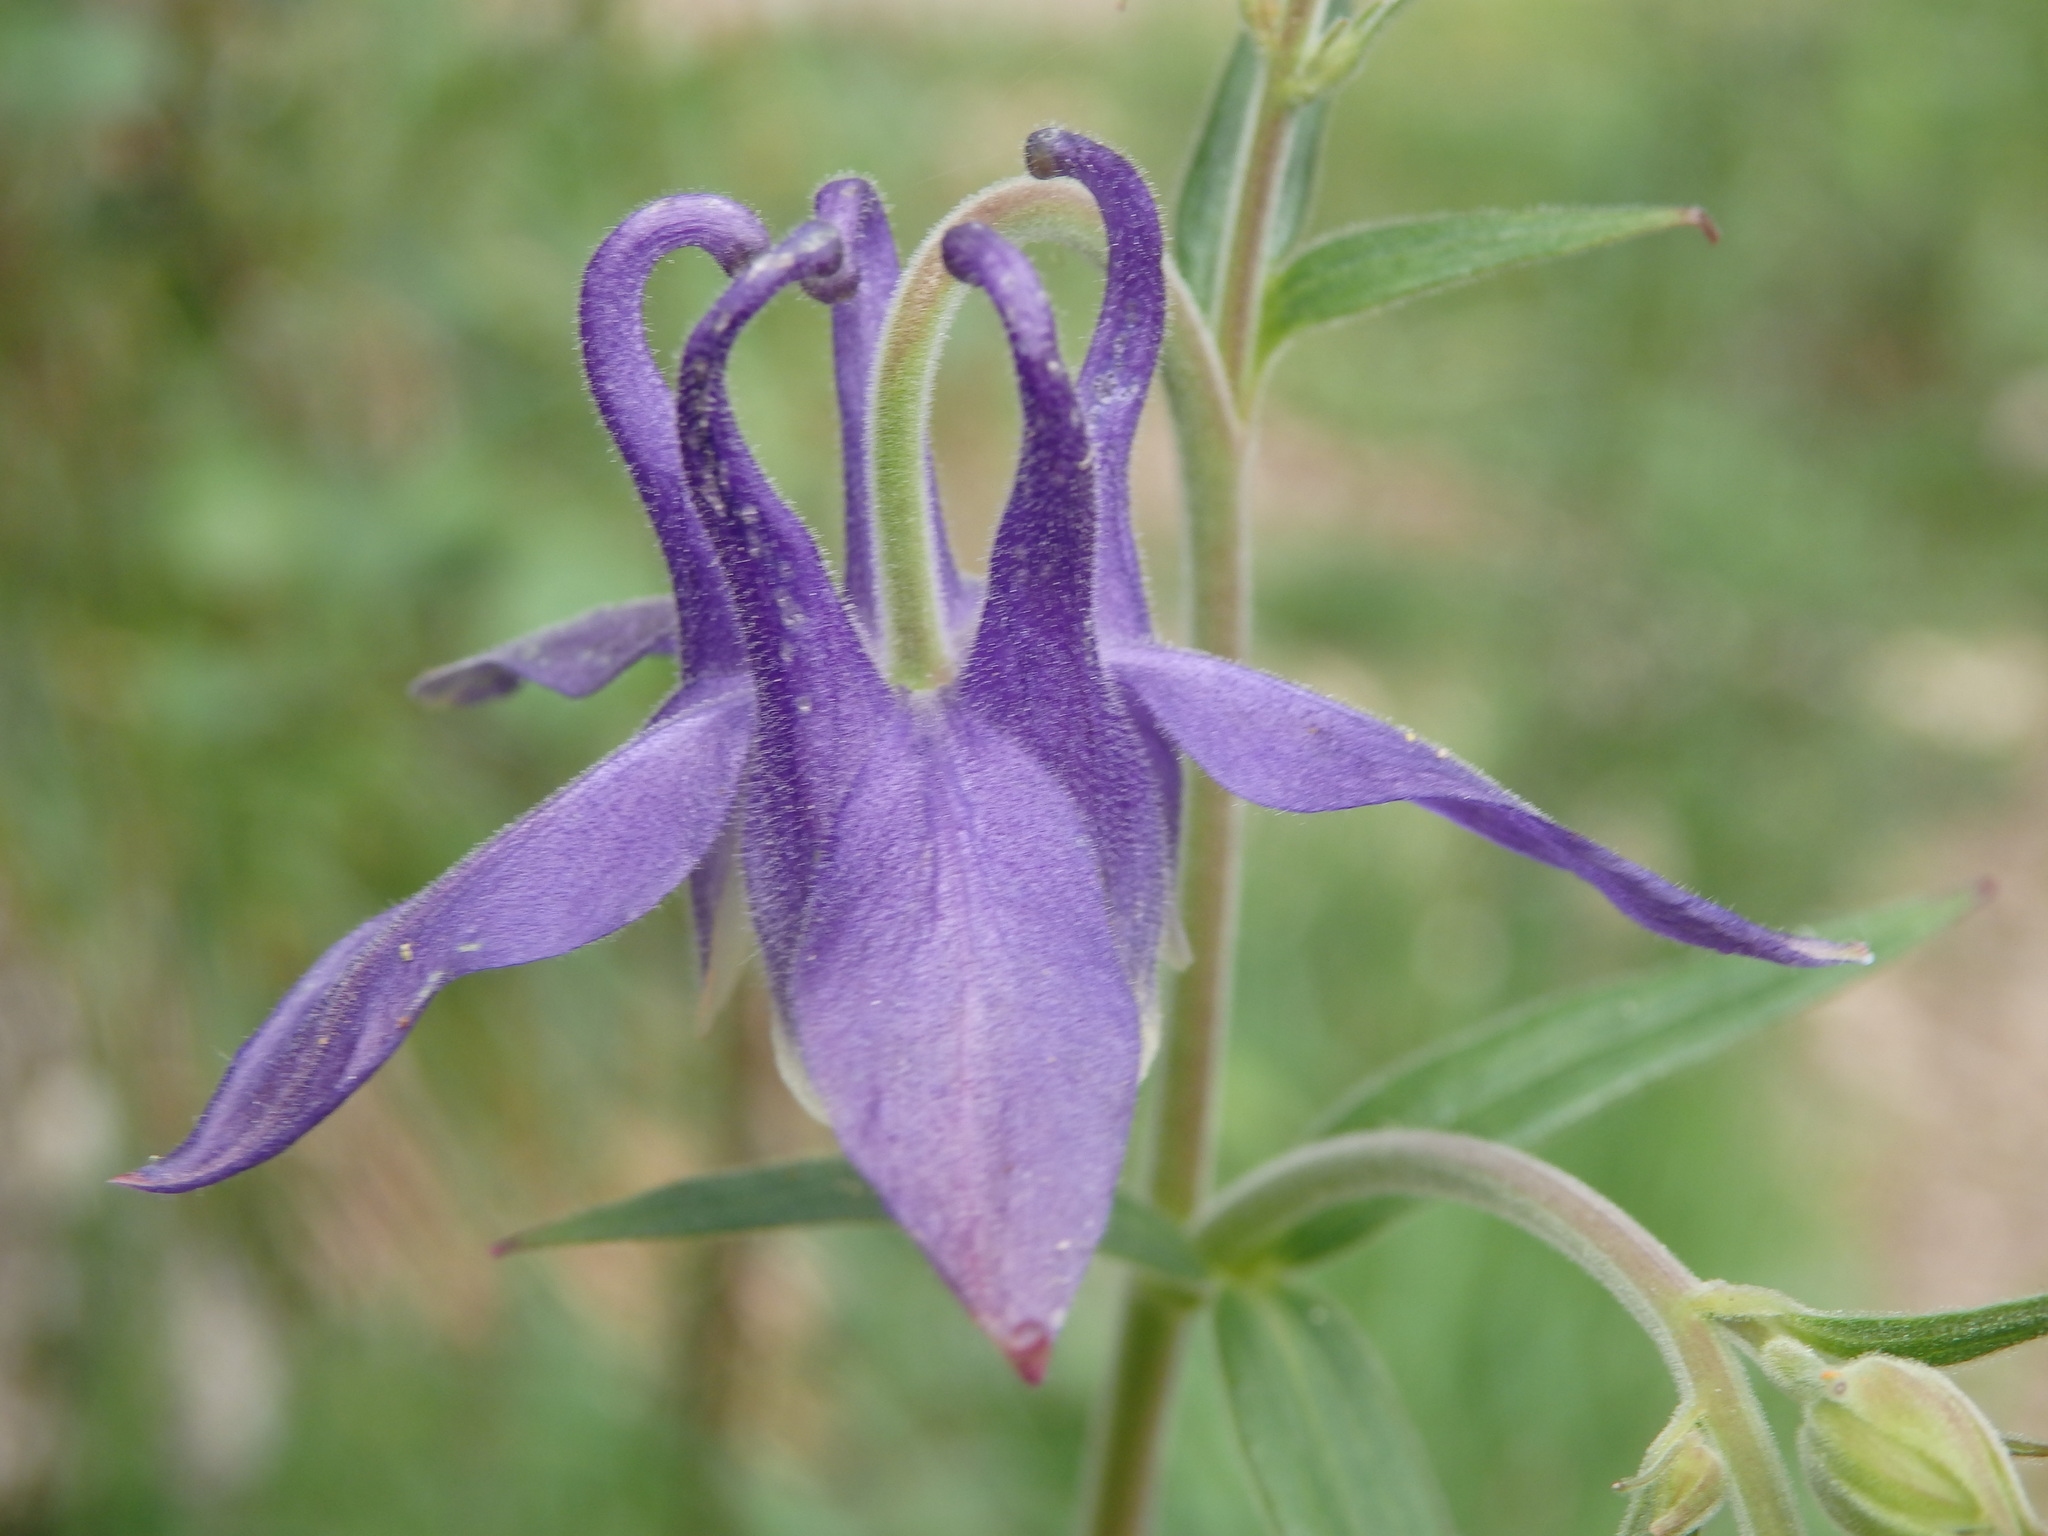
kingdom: Plantae
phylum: Tracheophyta
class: Magnoliopsida
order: Ranunculales
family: Ranunculaceae
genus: Aquilegia
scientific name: Aquilegia vulgaris
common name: Columbine
